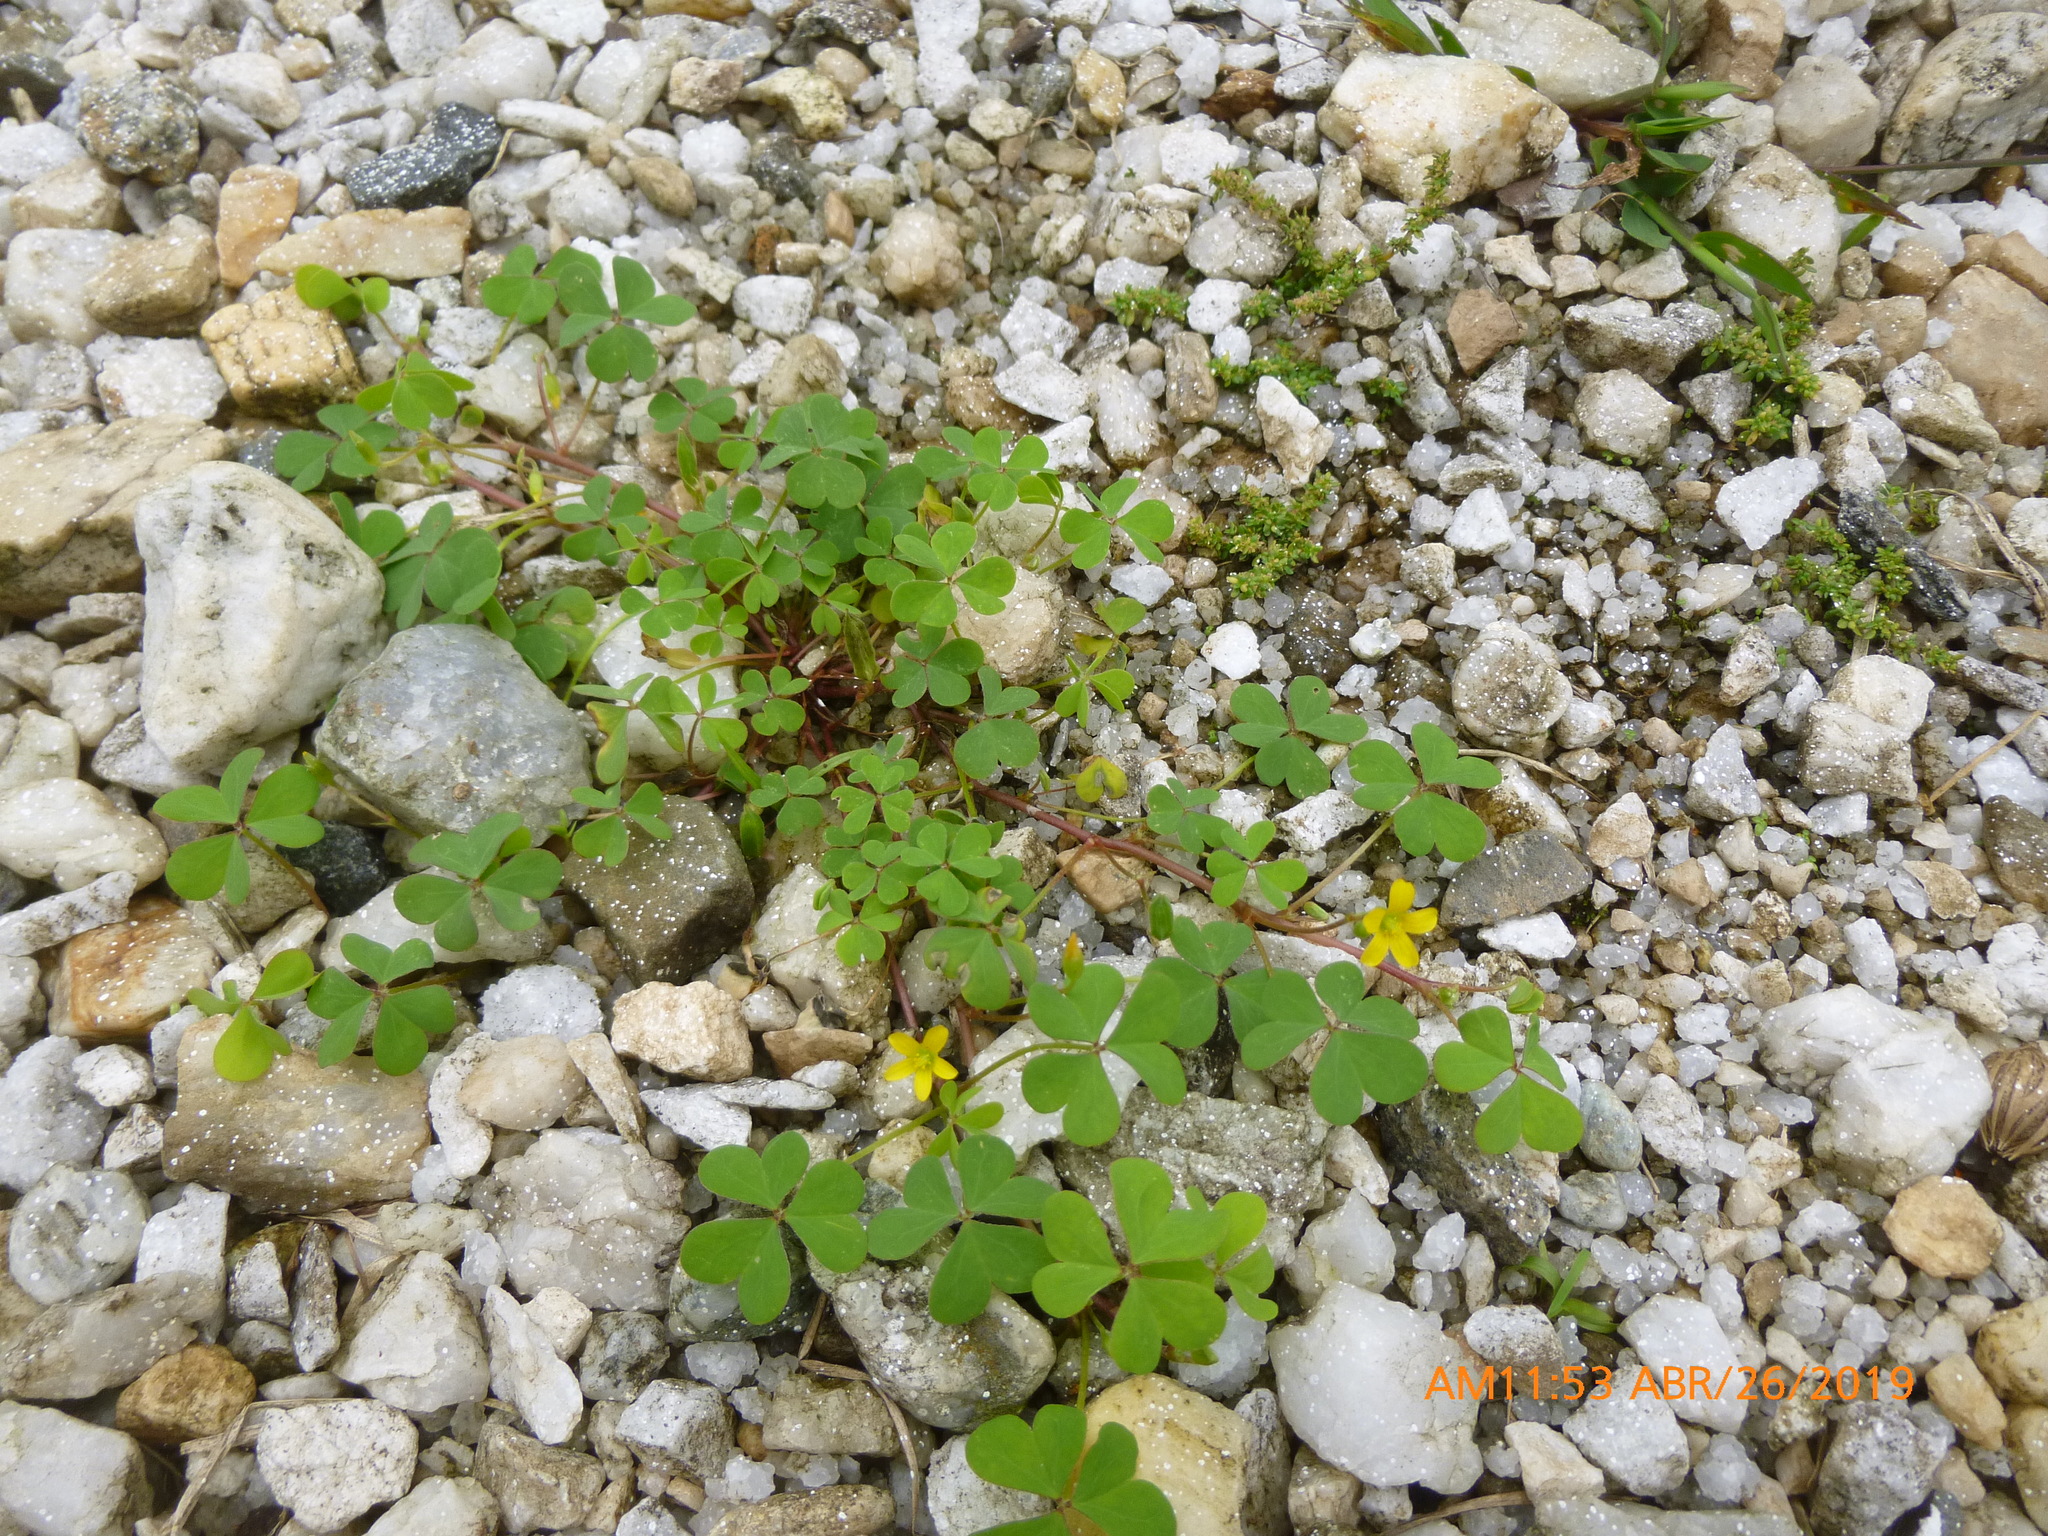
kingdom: Plantae
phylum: Tracheophyta
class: Magnoliopsida
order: Oxalidales
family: Oxalidaceae
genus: Oxalis
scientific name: Oxalis corniculata
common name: Procumbent yellow-sorrel
